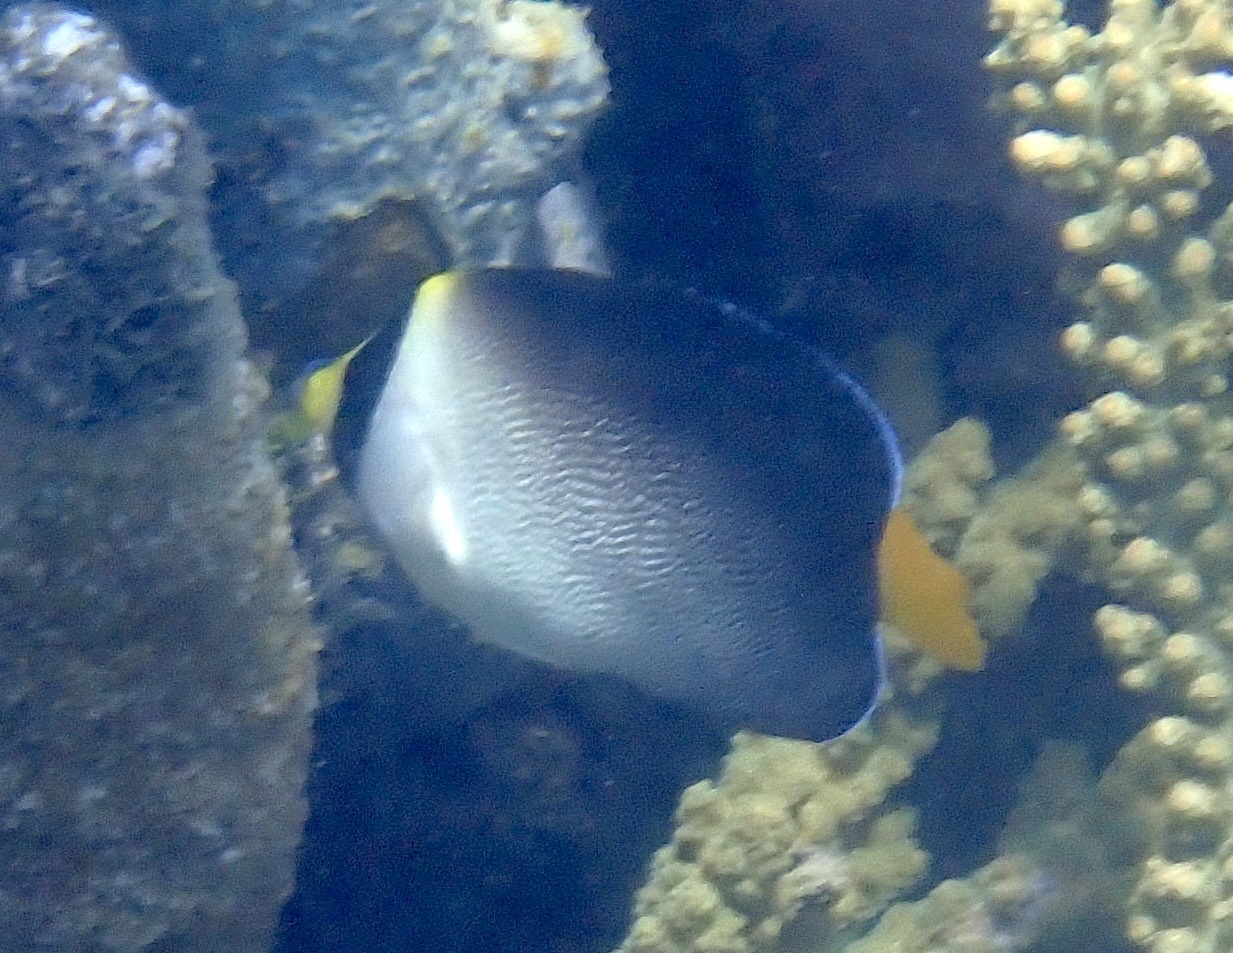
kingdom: Animalia
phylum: Chordata
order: Perciformes
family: Pomacanthidae
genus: Chaetodontoplus
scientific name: Chaetodontoplus mesoleucus
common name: Vermiculated angelfish
